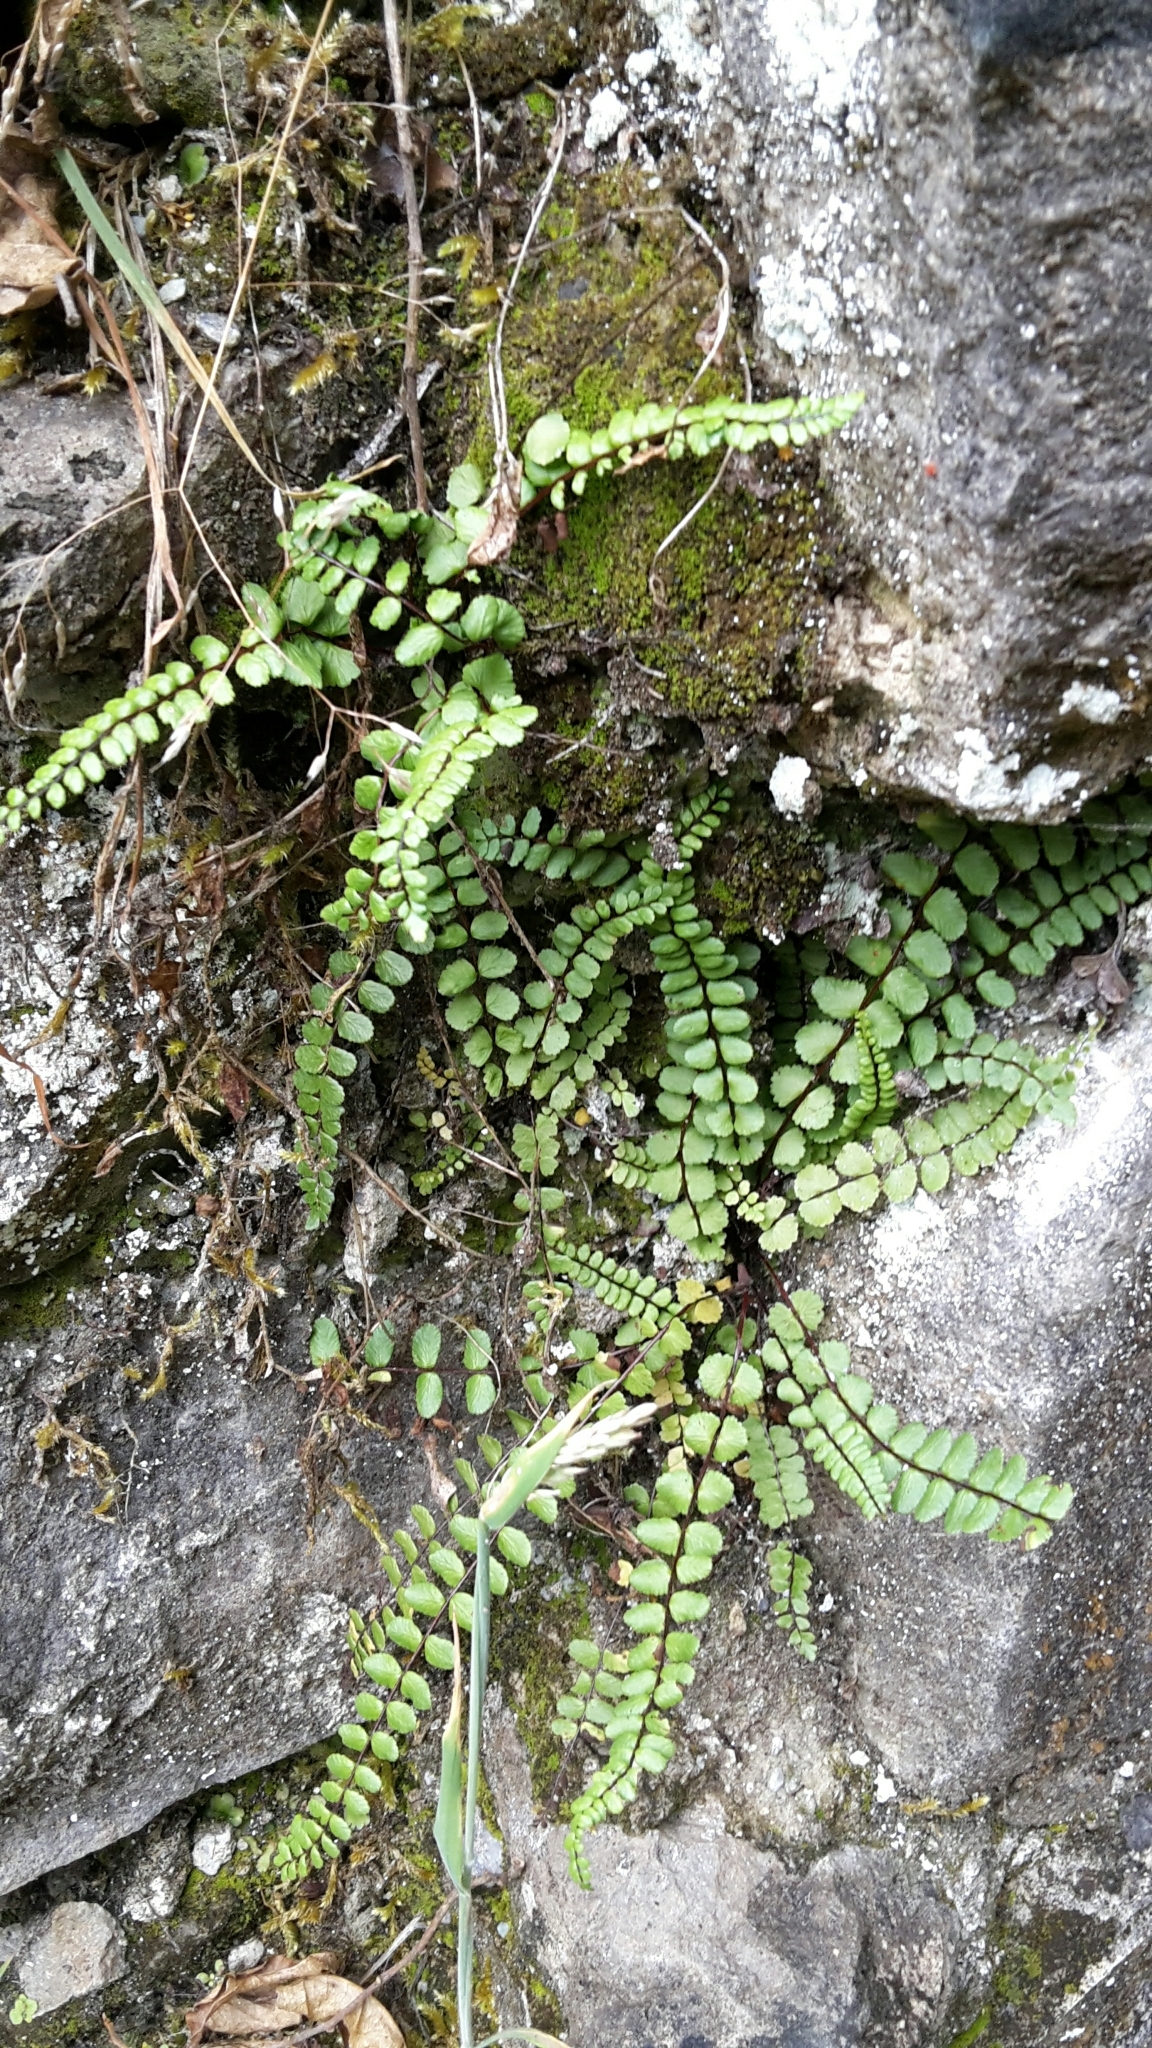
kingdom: Plantae
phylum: Tracheophyta
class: Polypodiopsida
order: Polypodiales
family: Aspleniaceae
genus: Asplenium
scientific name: Asplenium trichomanes
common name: Maidenhair spleenwort
